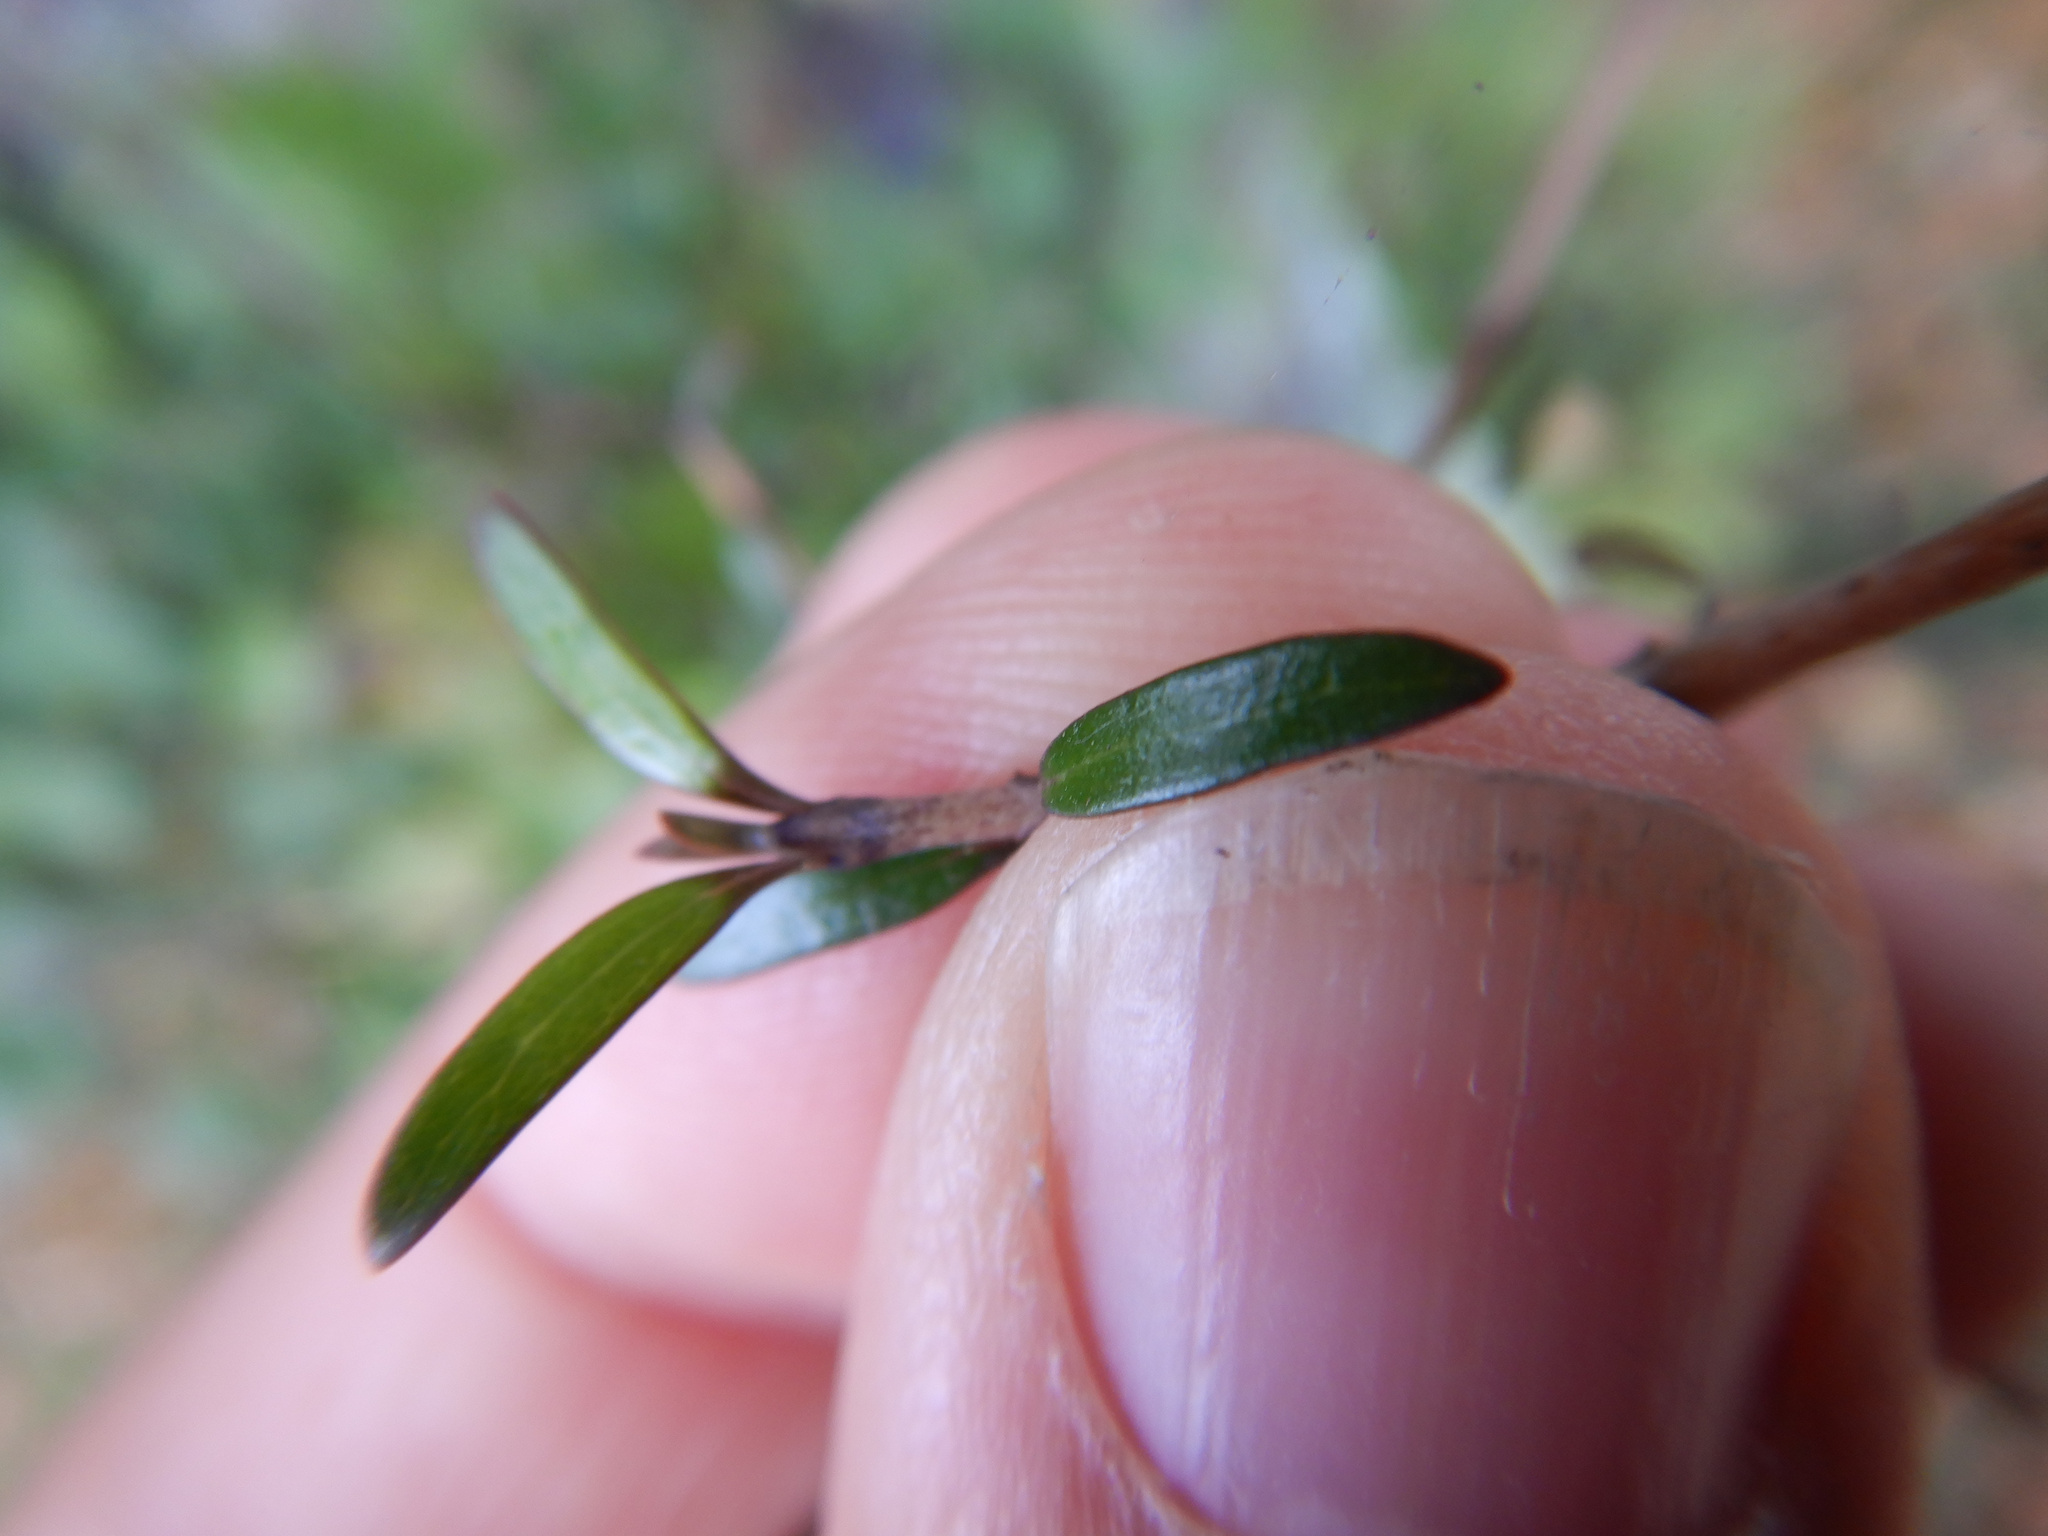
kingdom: Plantae
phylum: Tracheophyta
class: Magnoliopsida
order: Gentianales
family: Rubiaceae
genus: Coprosma
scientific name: Coprosma propinqua
